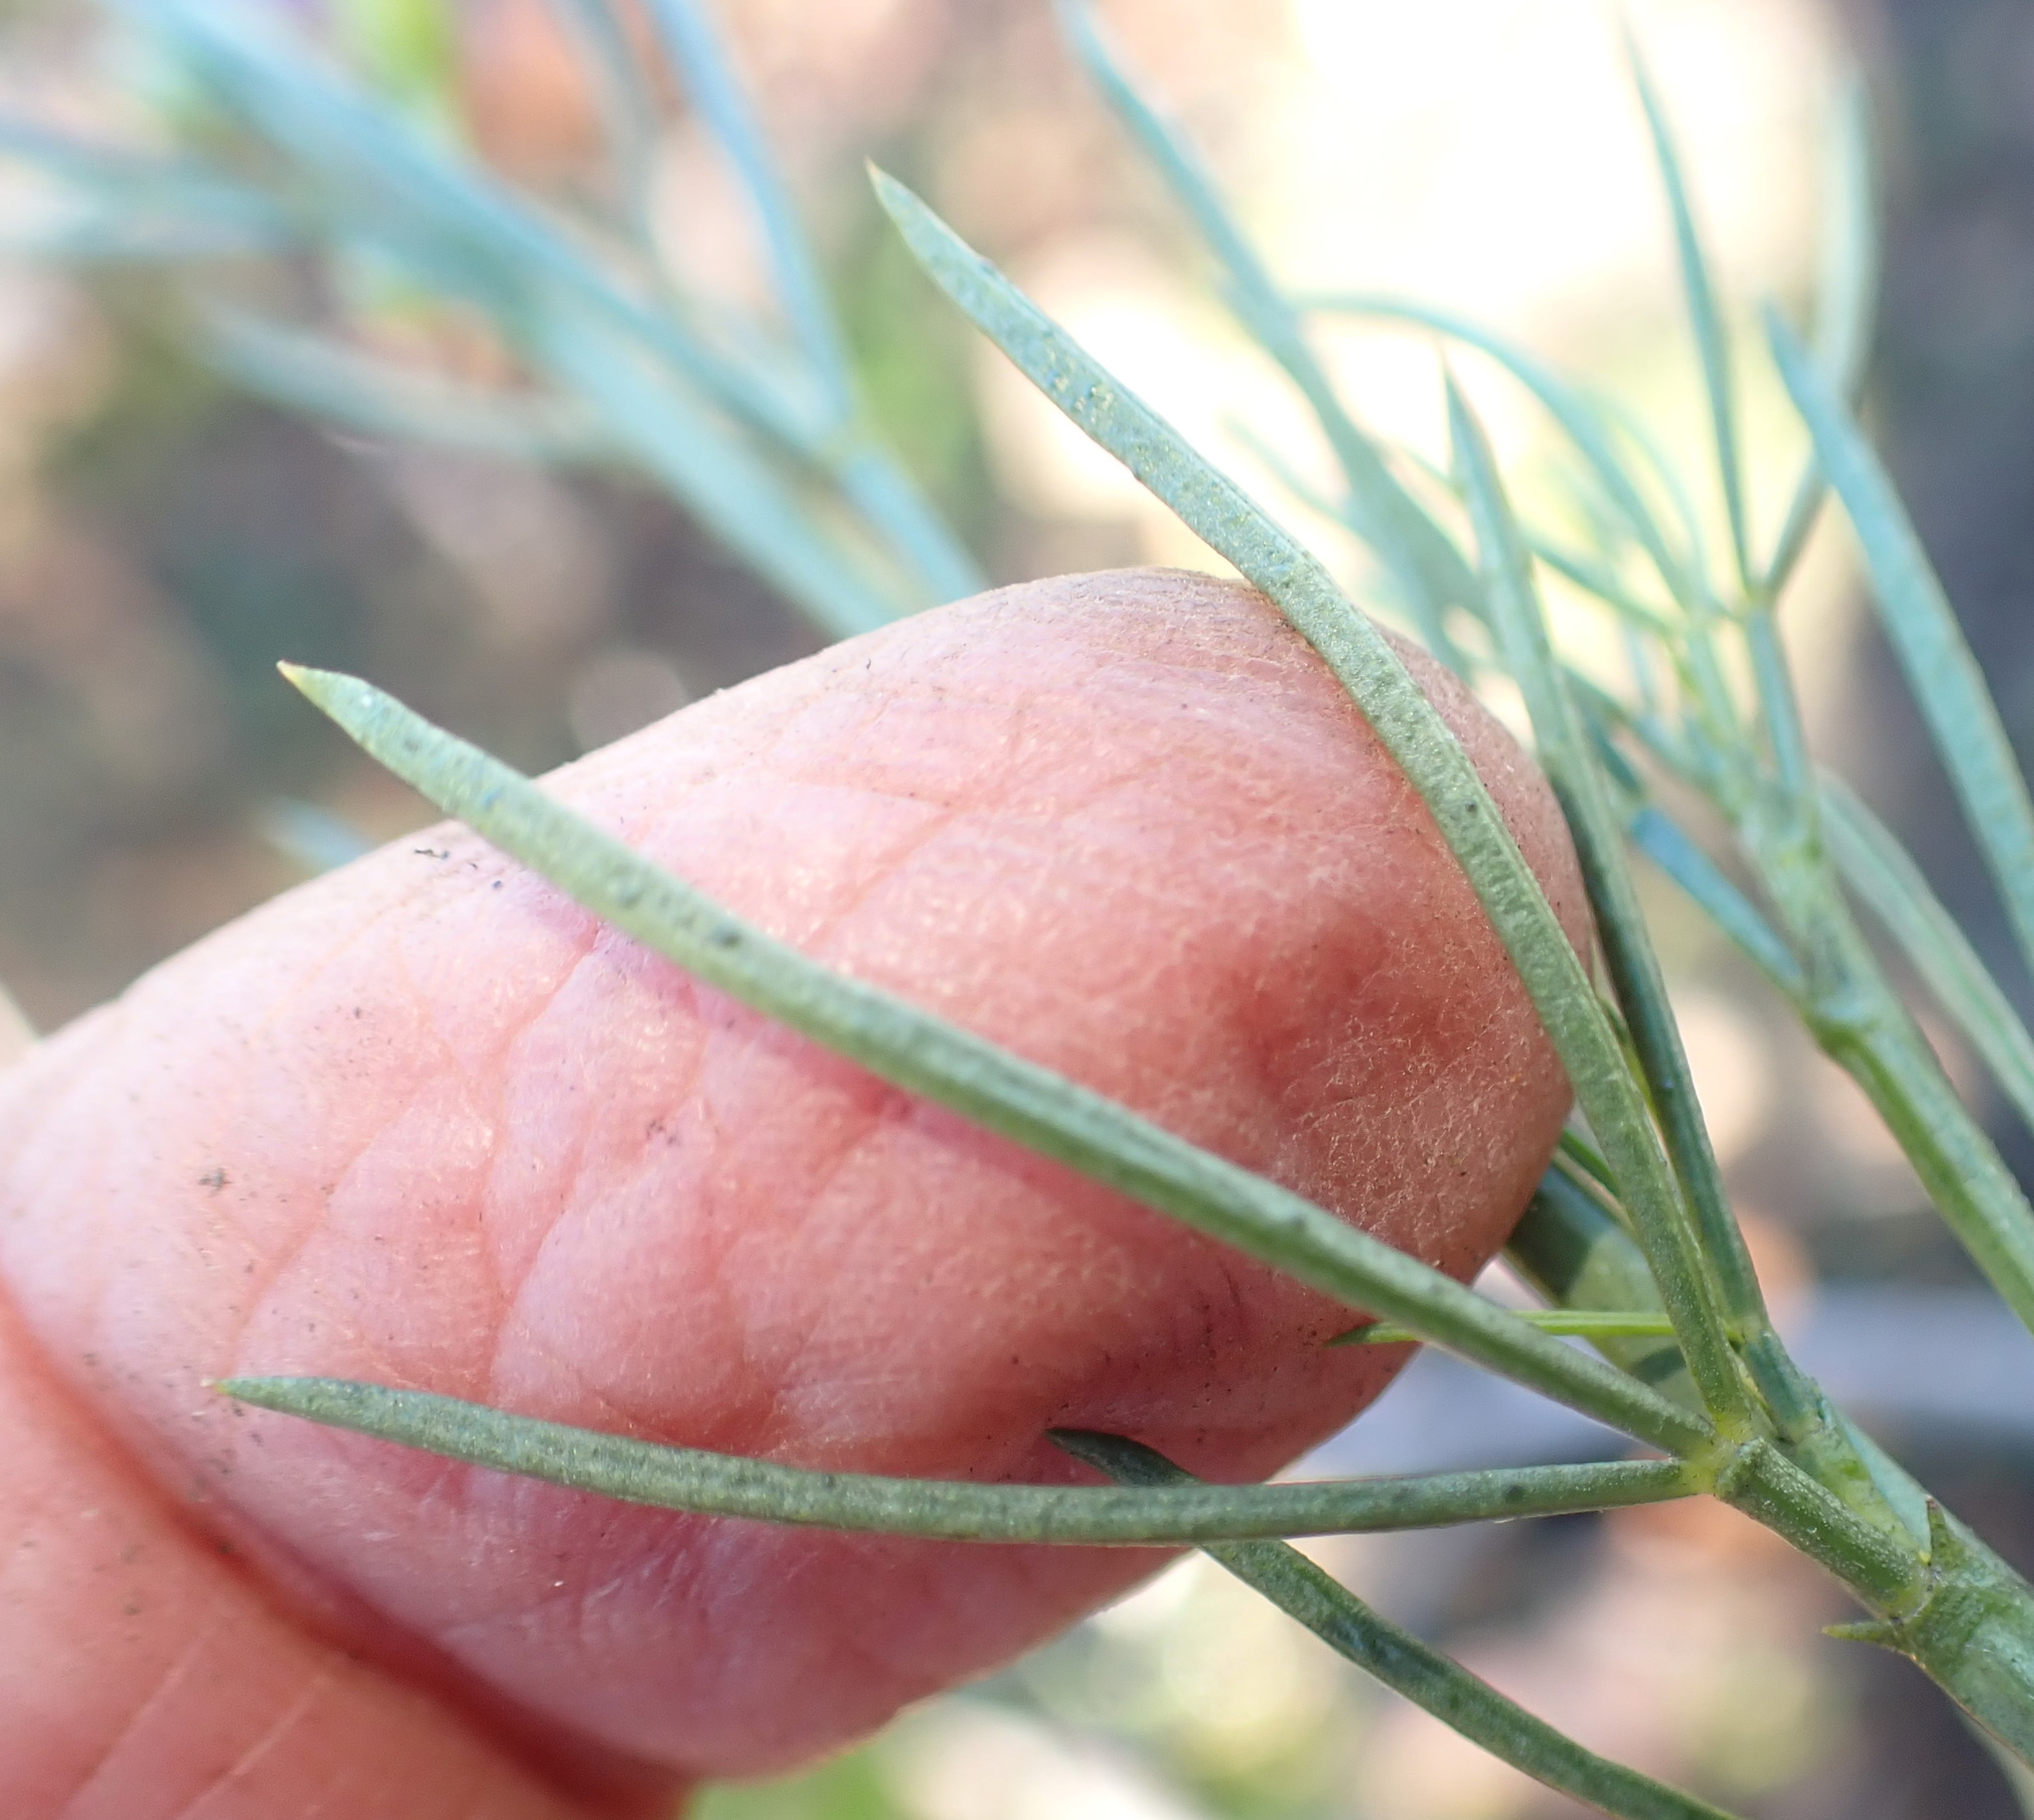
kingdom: Plantae
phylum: Tracheophyta
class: Magnoliopsida
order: Fabales
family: Fabaceae
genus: Psoralea
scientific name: Psoralea sordida
